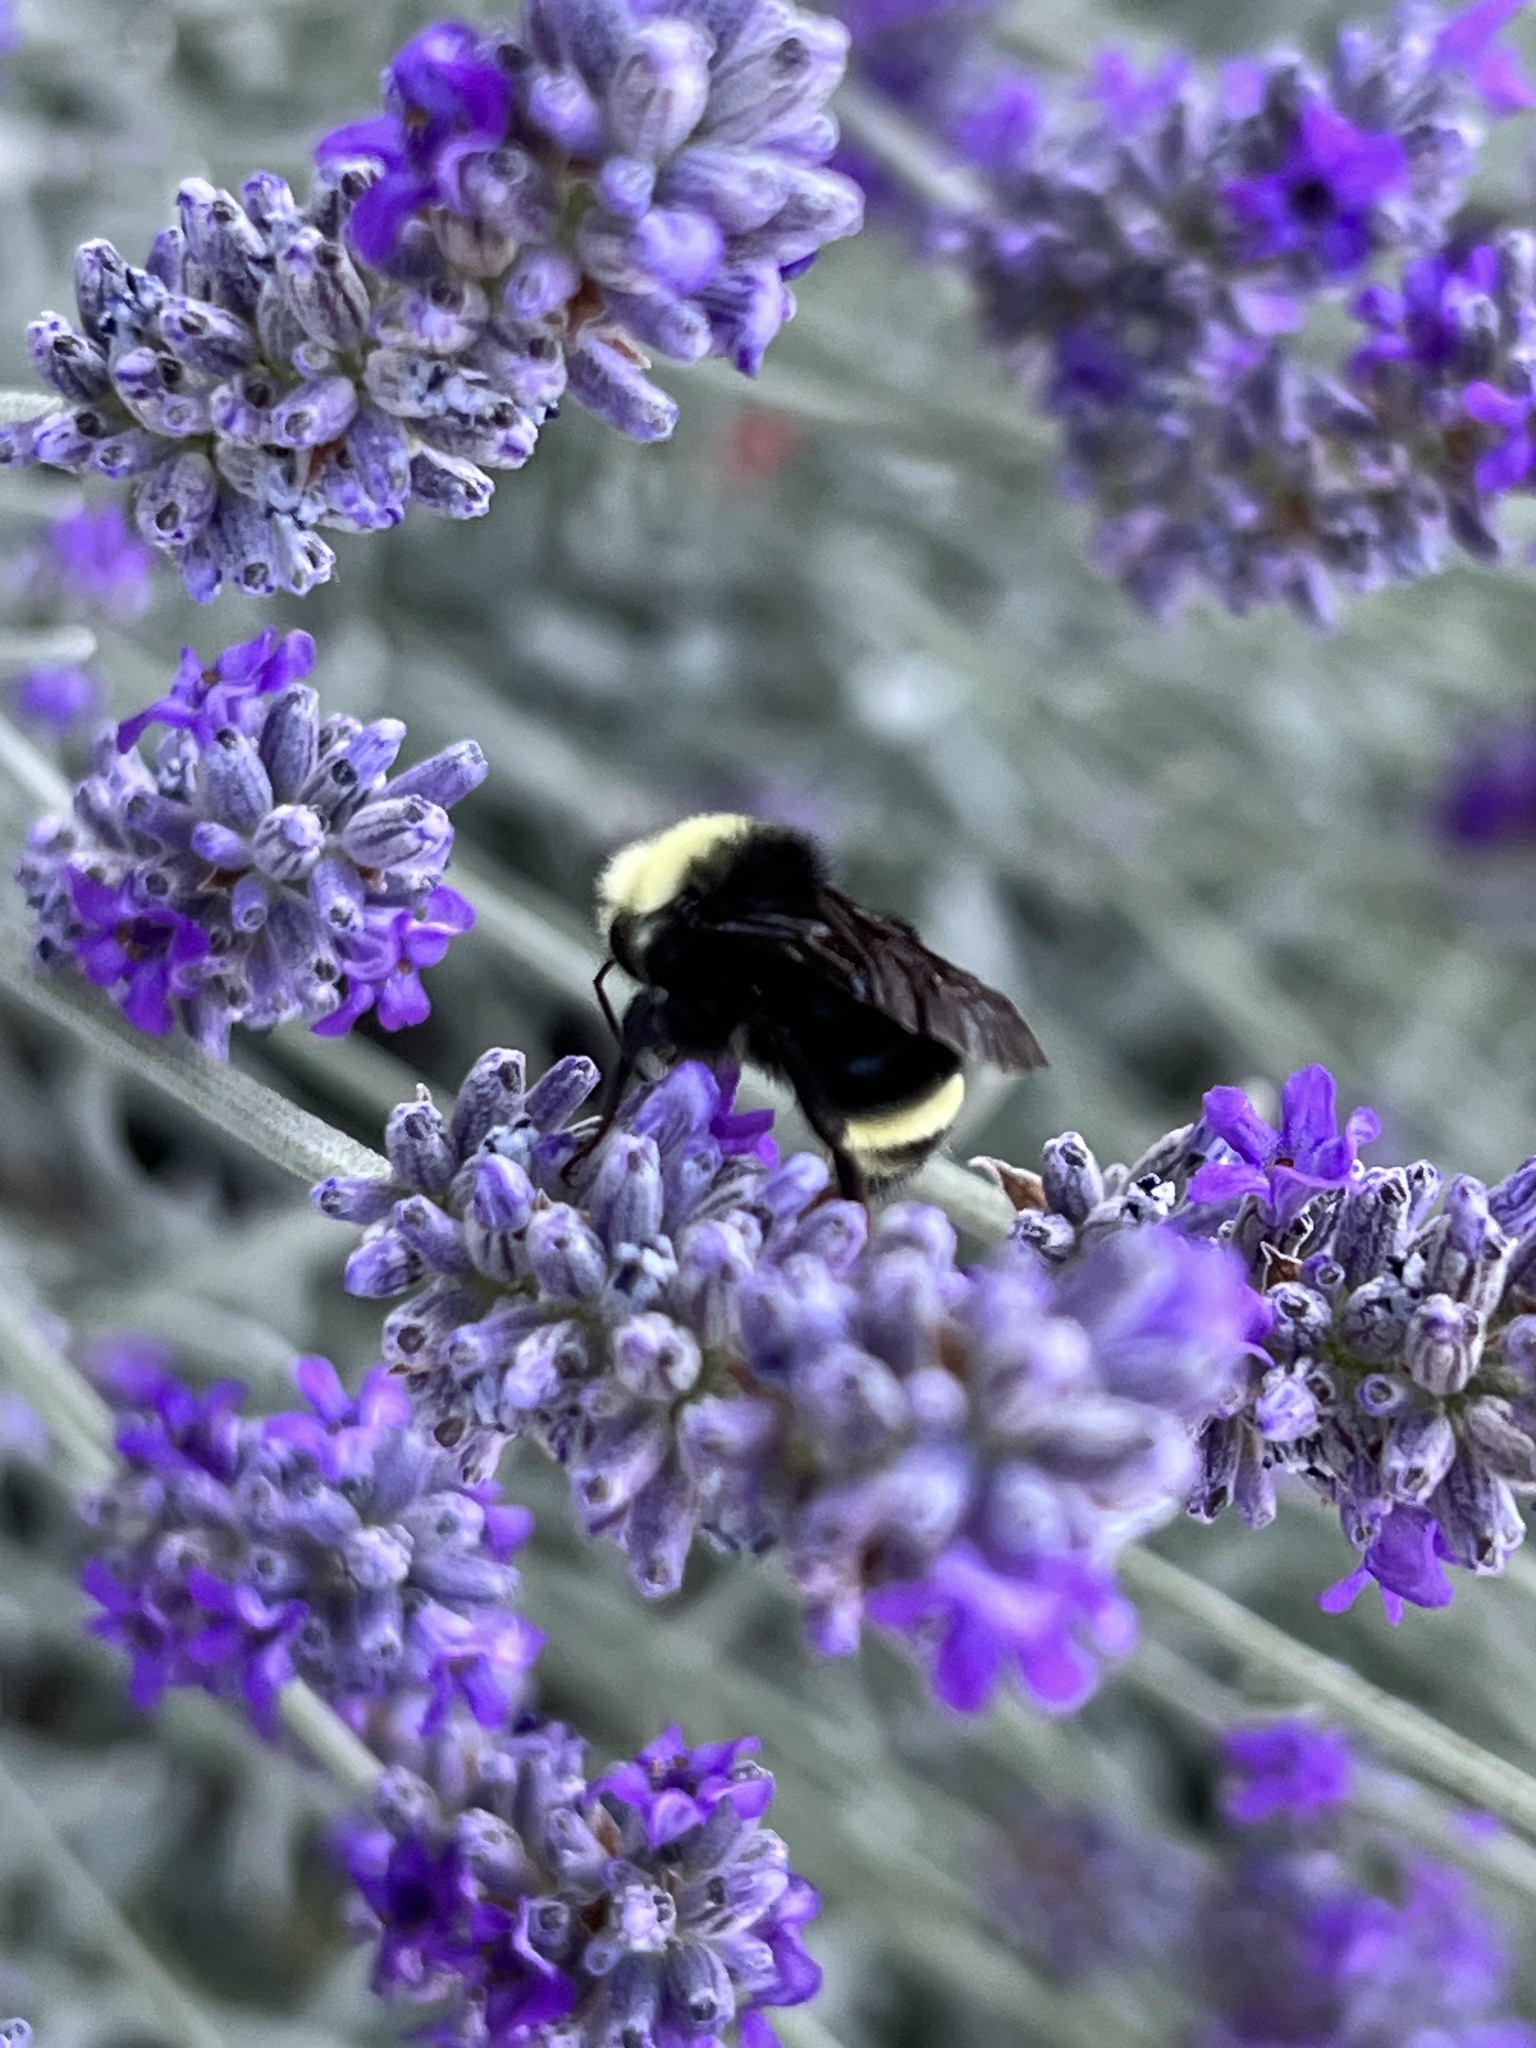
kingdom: Animalia
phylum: Arthropoda
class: Insecta
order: Hymenoptera
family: Apidae
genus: Bombus
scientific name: Bombus vosnesenskii
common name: Vosnesensky bumble bee
